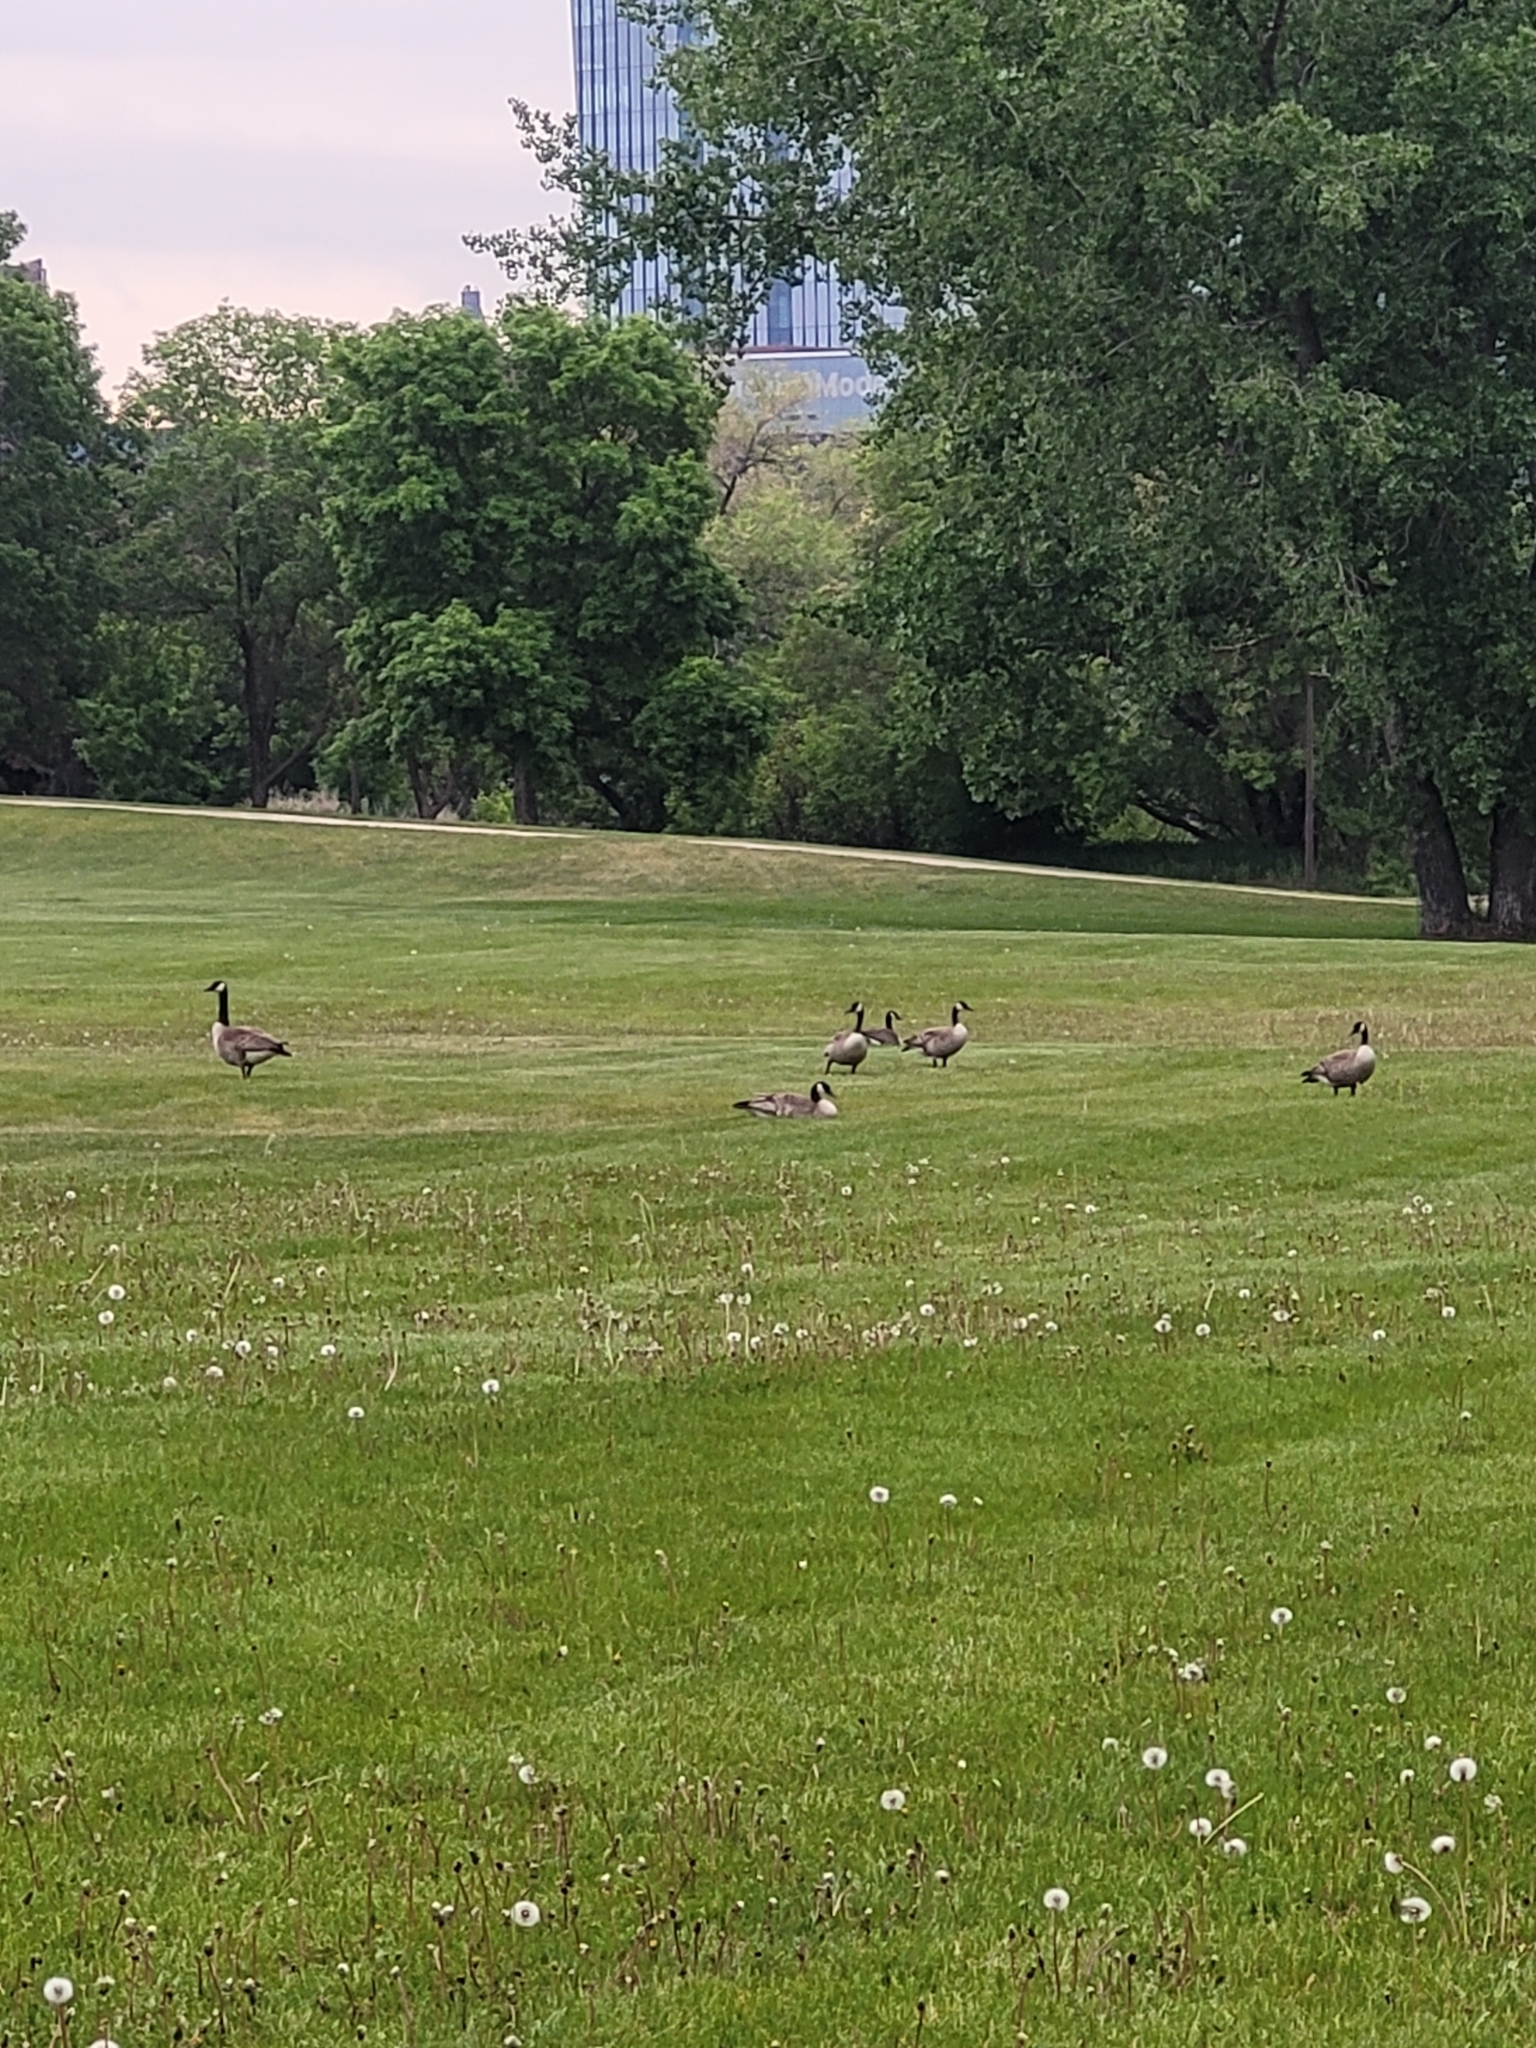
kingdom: Animalia
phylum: Chordata
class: Aves
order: Anseriformes
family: Anatidae
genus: Branta
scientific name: Branta canadensis
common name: Canada goose
